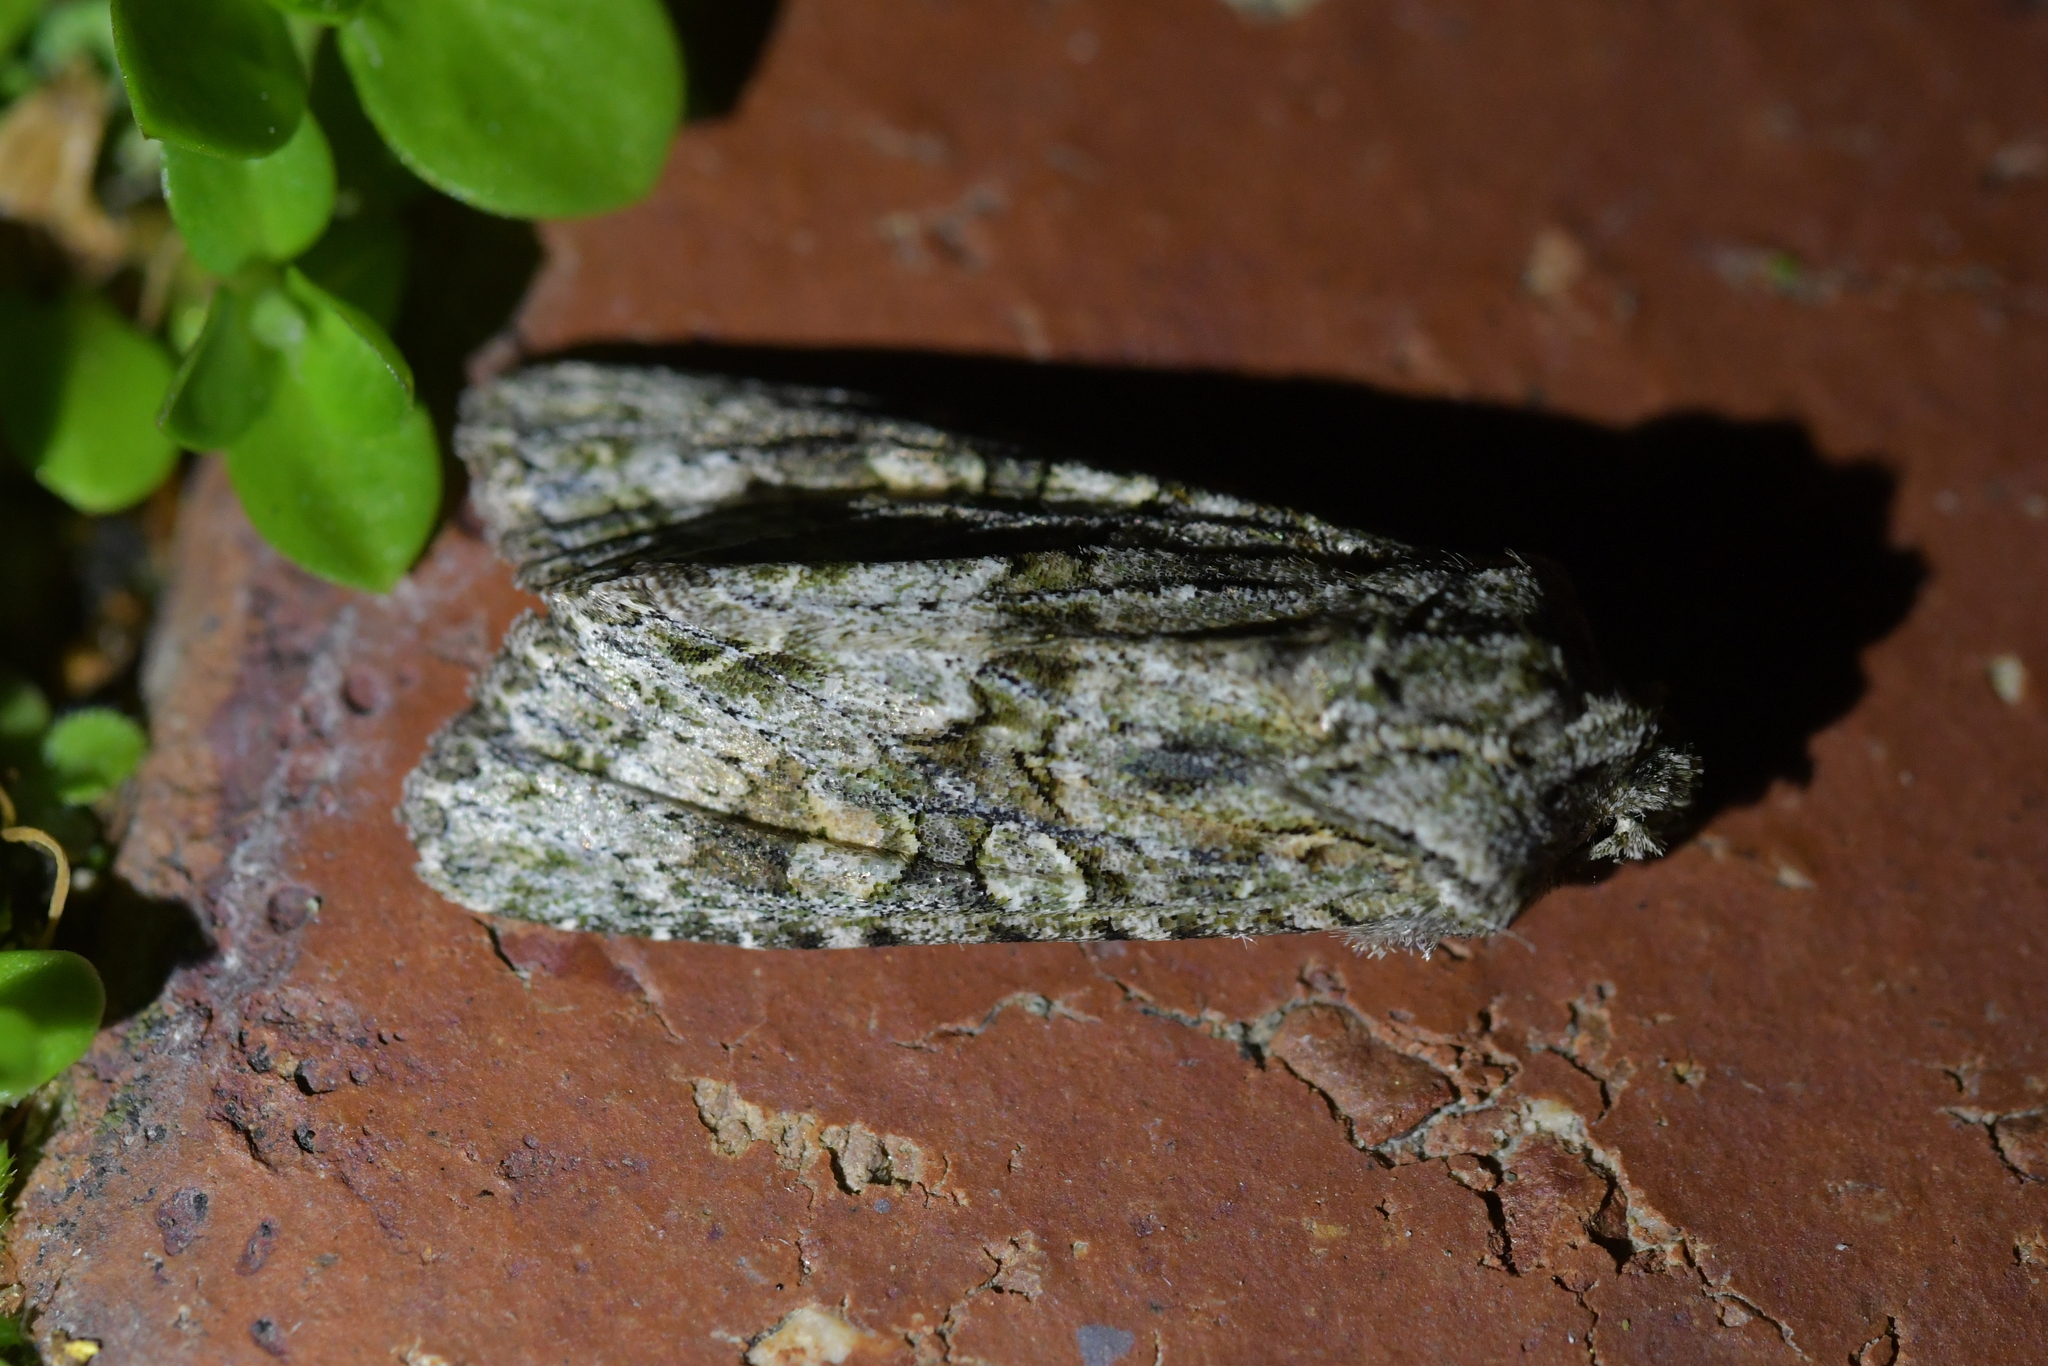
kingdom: Animalia
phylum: Arthropoda
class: Insecta
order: Lepidoptera
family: Noctuidae
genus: Ichneutica
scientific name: Ichneutica mutans
